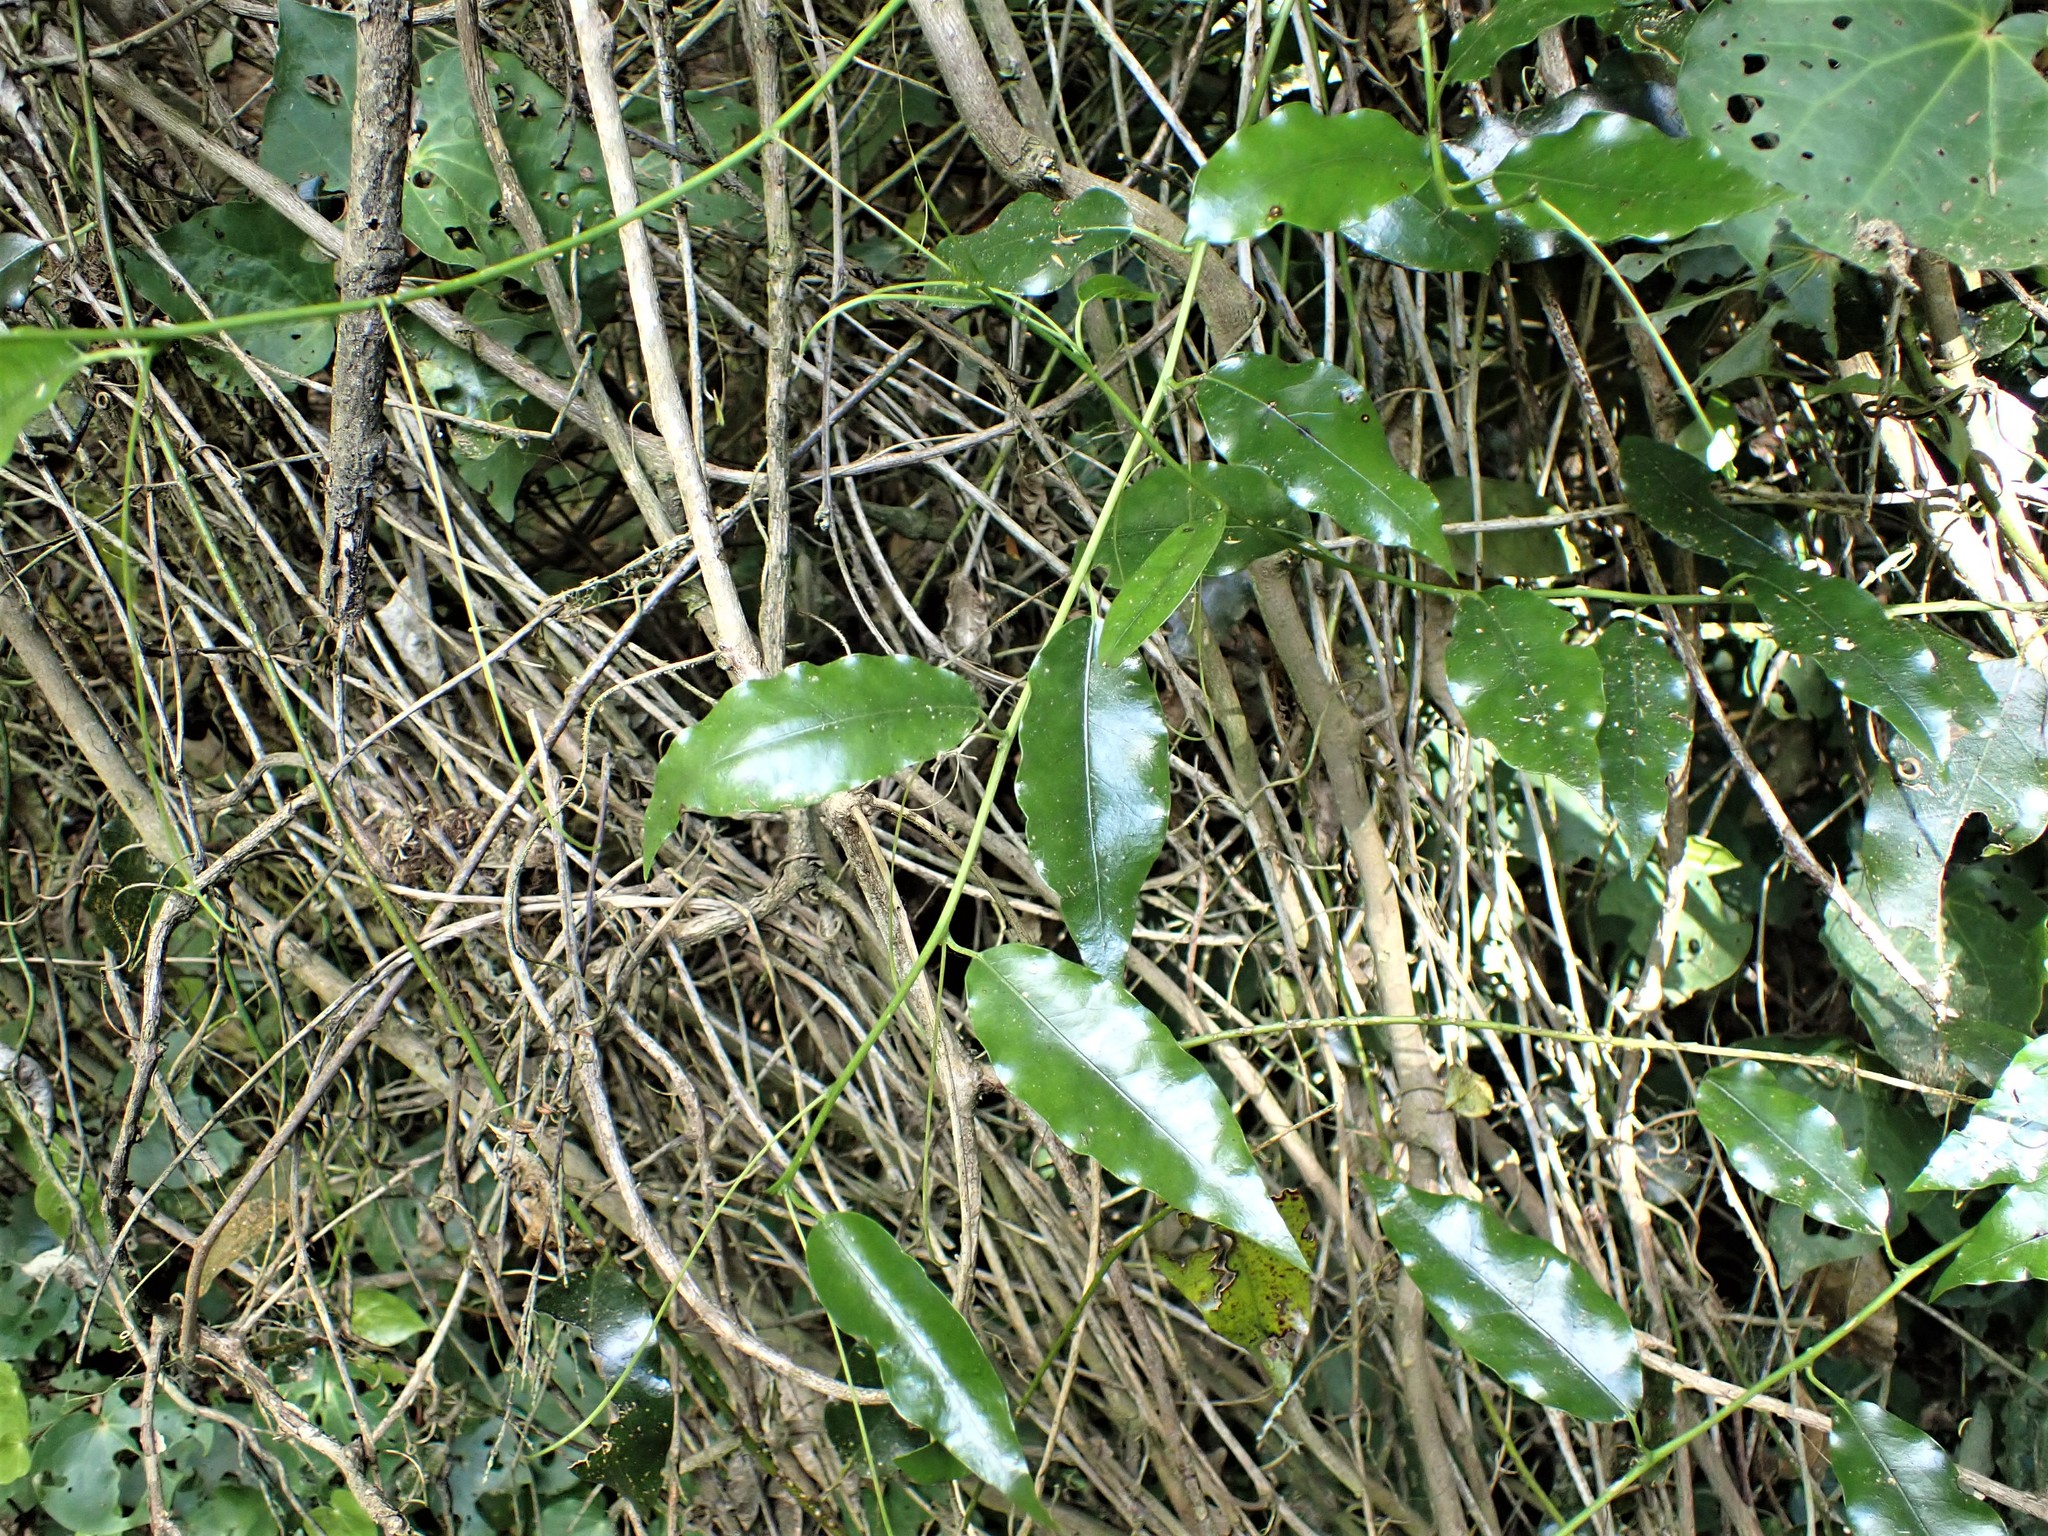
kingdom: Plantae
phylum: Tracheophyta
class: Magnoliopsida
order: Malpighiales
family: Passifloraceae
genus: Passiflora
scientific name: Passiflora tetrandra
